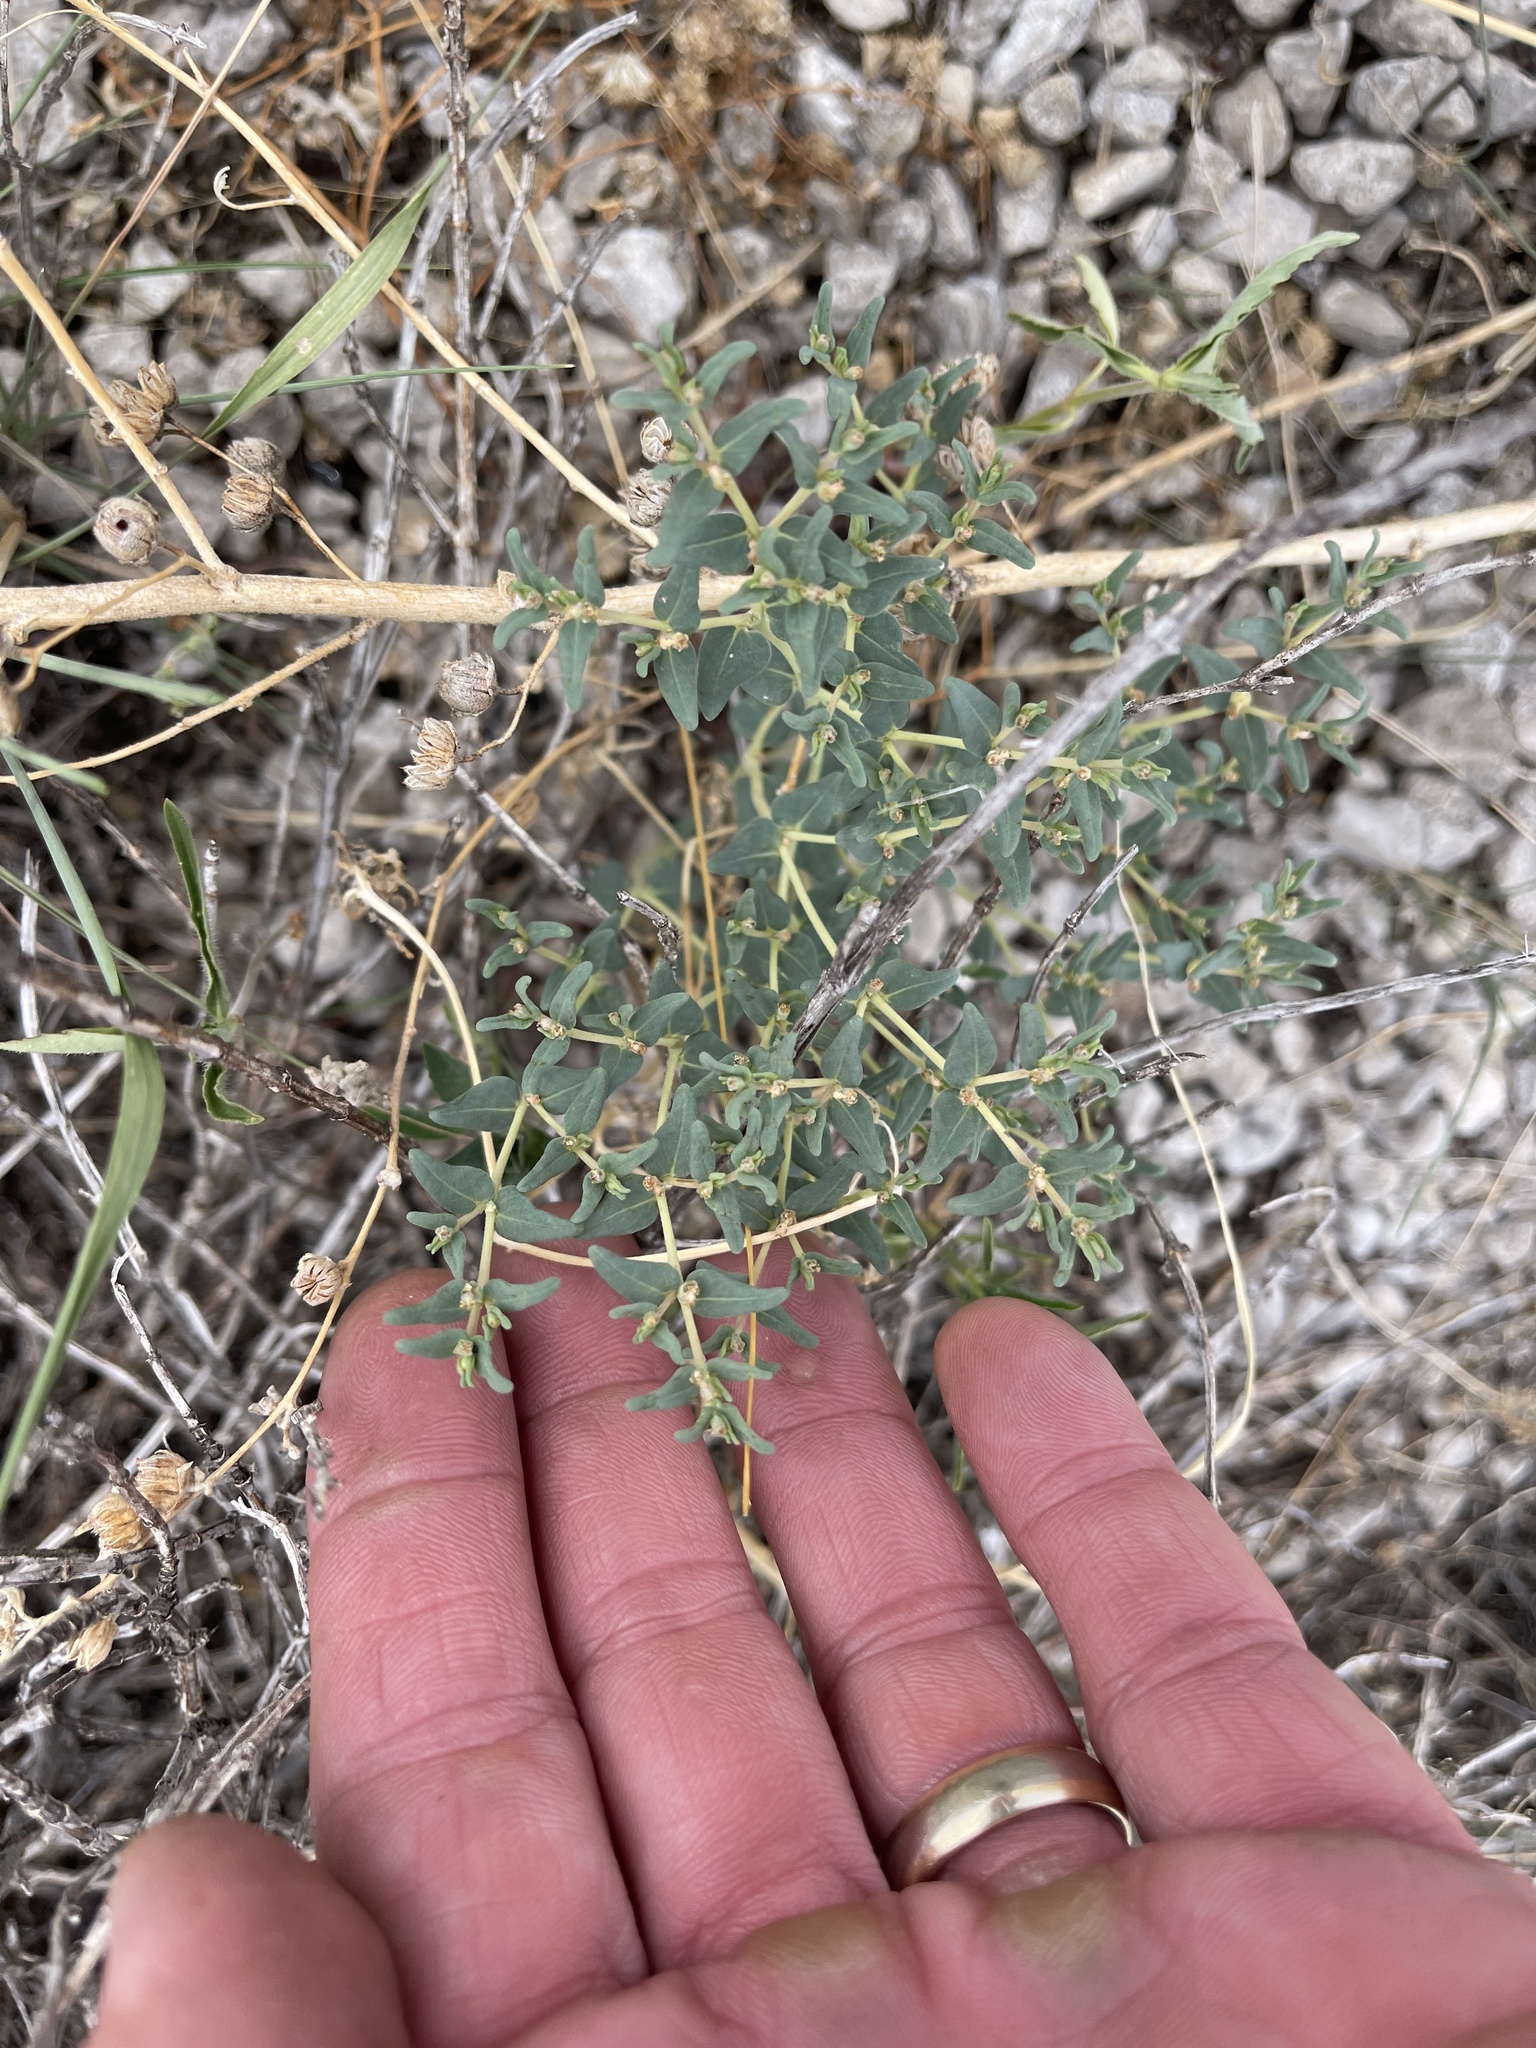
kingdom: Plantae
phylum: Tracheophyta
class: Magnoliopsida
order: Malpighiales
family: Euphorbiaceae
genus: Euphorbia
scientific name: Euphorbia lata
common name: Hoary euphorbia
